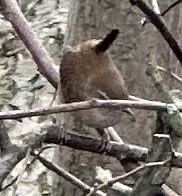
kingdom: Animalia
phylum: Chordata
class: Aves
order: Passeriformes
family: Troglodytidae
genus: Troglodytes
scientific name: Troglodytes troglodytes
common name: Eurasian wren
